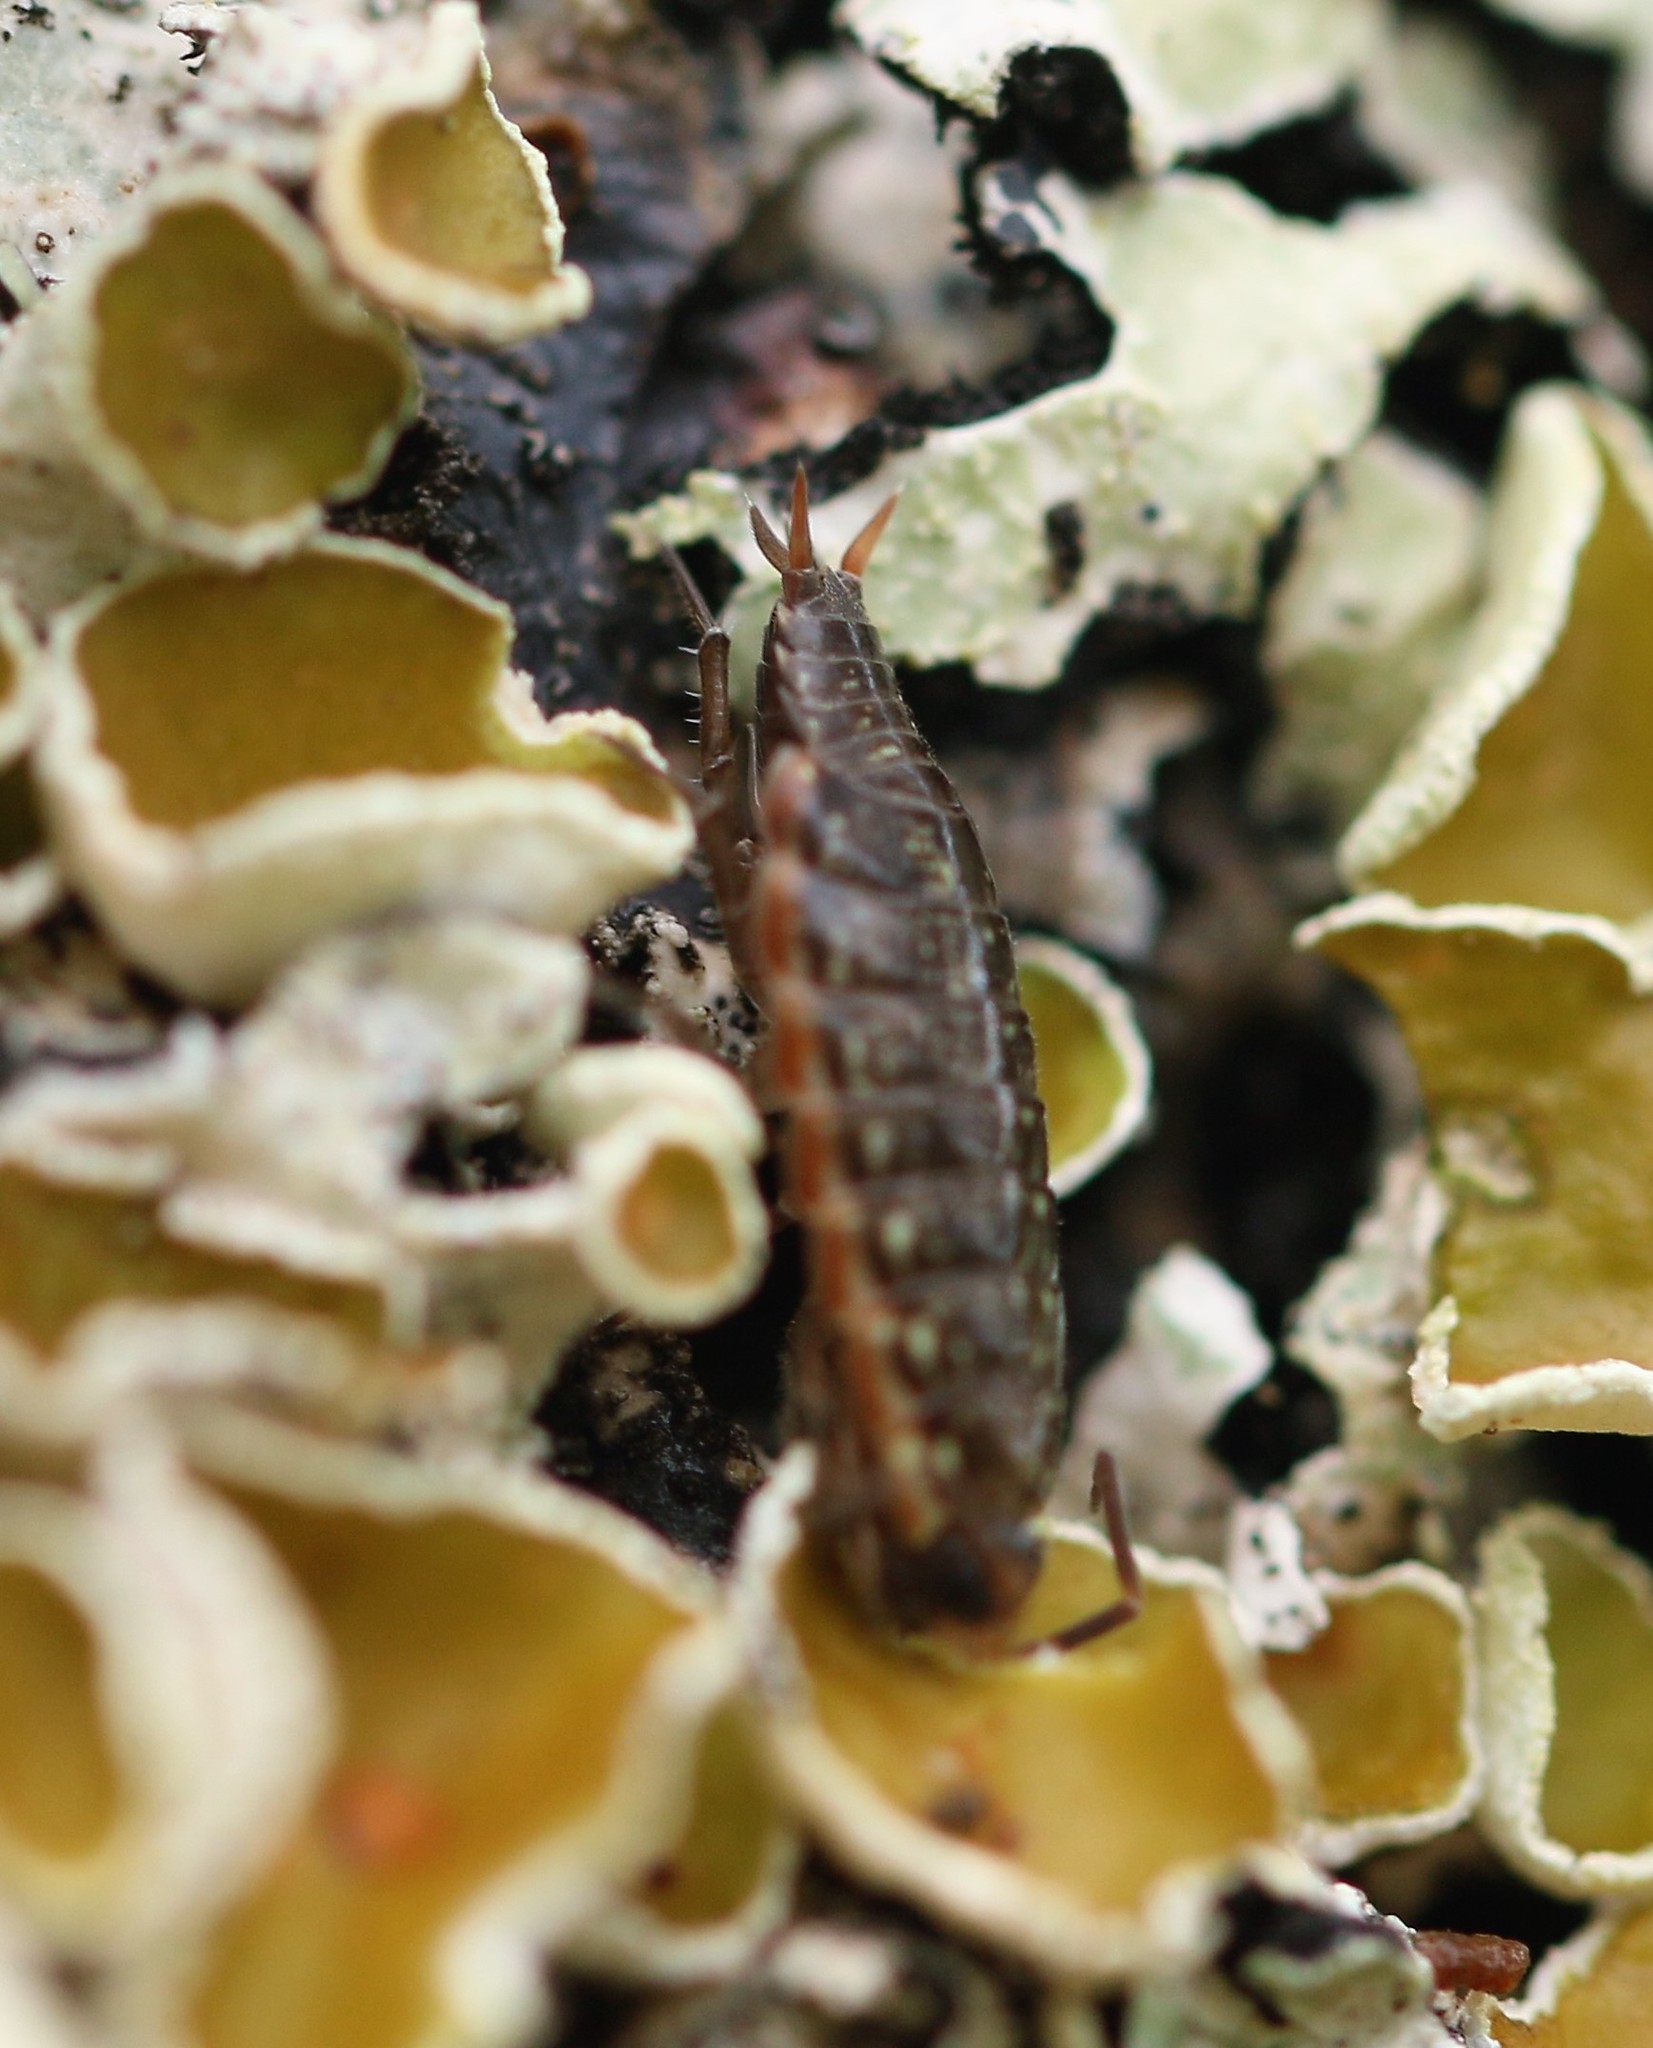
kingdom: Animalia
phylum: Arthropoda
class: Malacostraca
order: Isopoda
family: Philosciidae
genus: Philoscia
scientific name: Philoscia muscorum
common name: Common striped woodlouse
